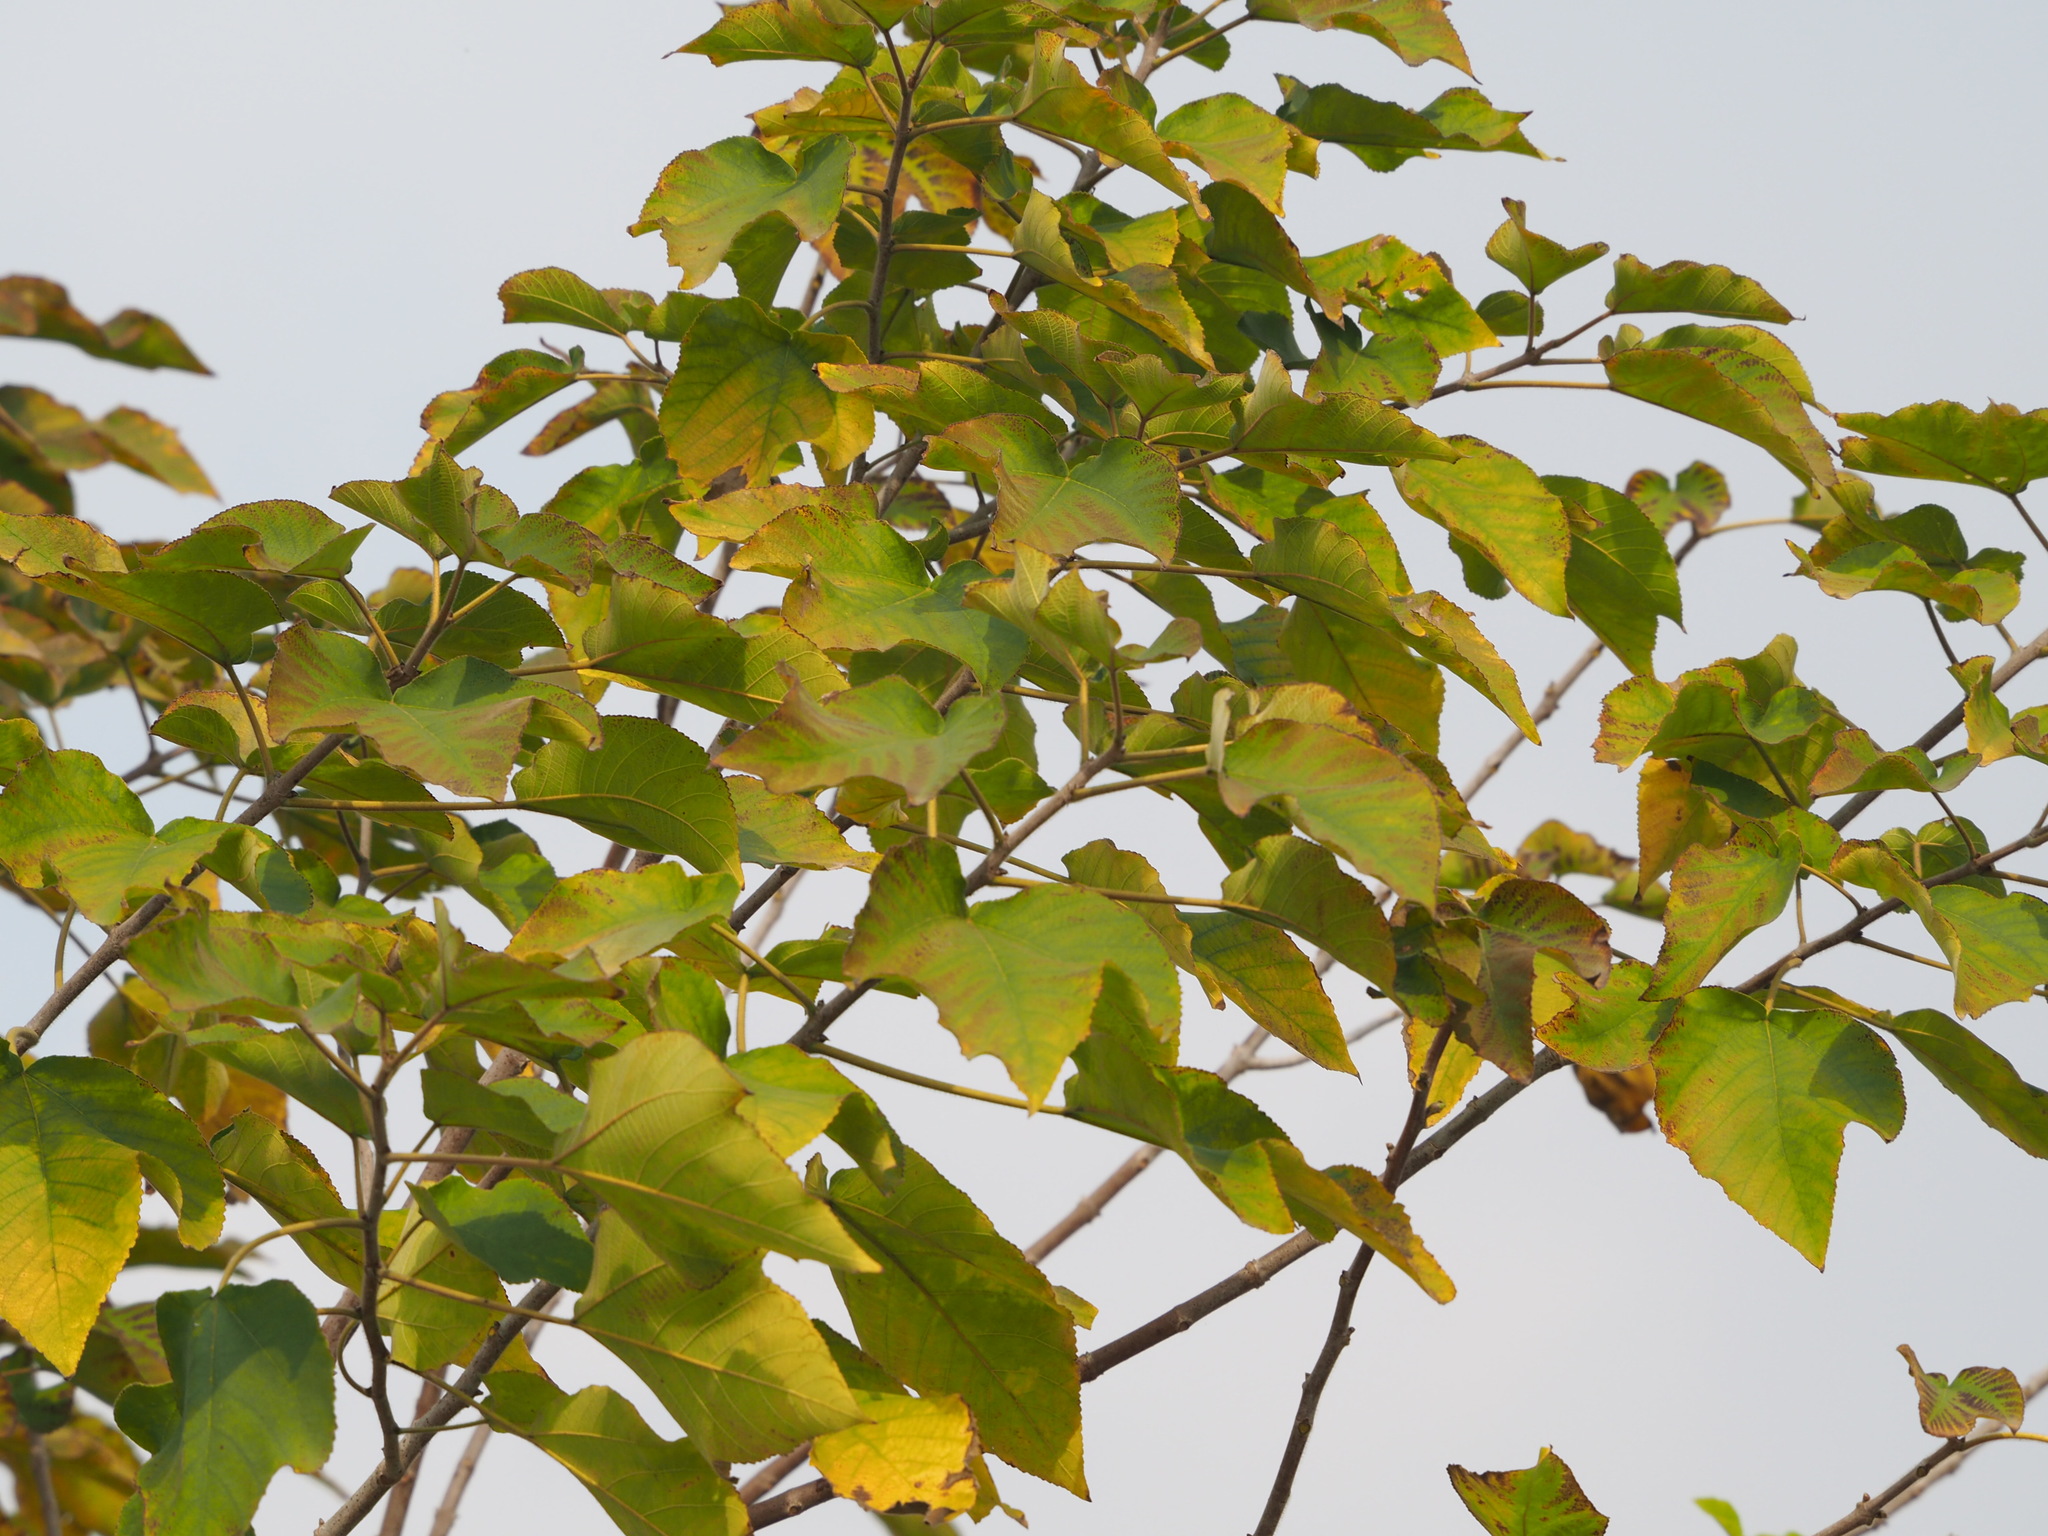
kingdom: Plantae
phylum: Tracheophyta
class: Magnoliopsida
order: Rosales
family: Moraceae
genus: Broussonetia
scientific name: Broussonetia papyrifera
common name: Paper mulberry
